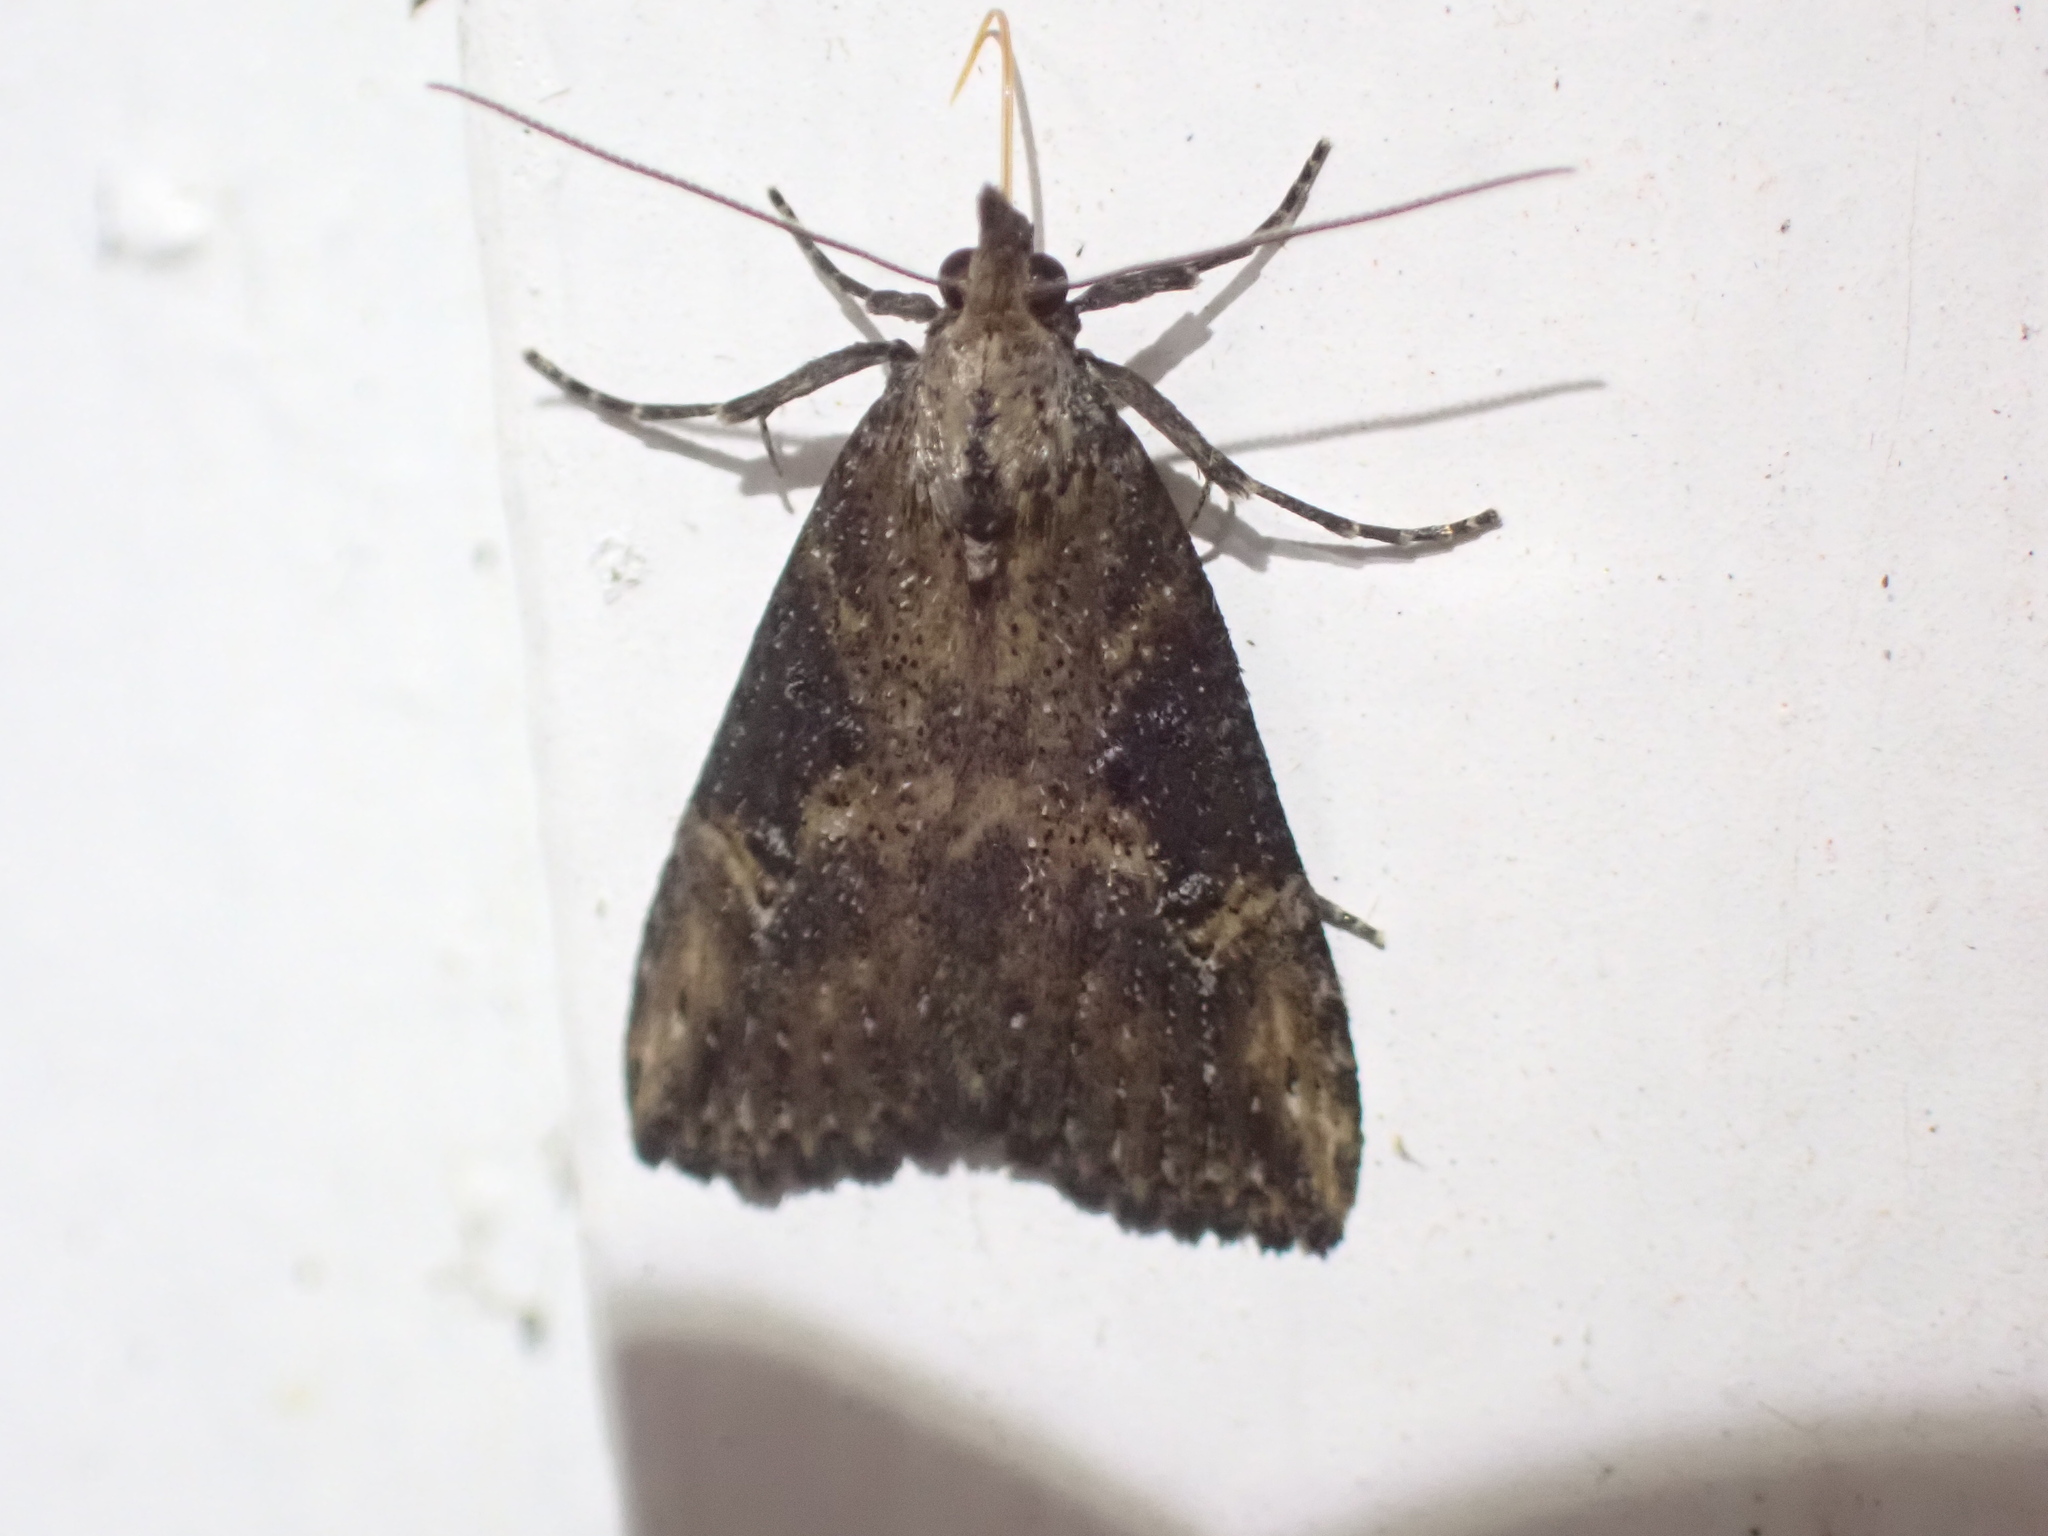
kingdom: Animalia
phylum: Arthropoda
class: Insecta
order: Lepidoptera
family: Erebidae
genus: Hypena
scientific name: Hypena humuli
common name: Hop vine snout
